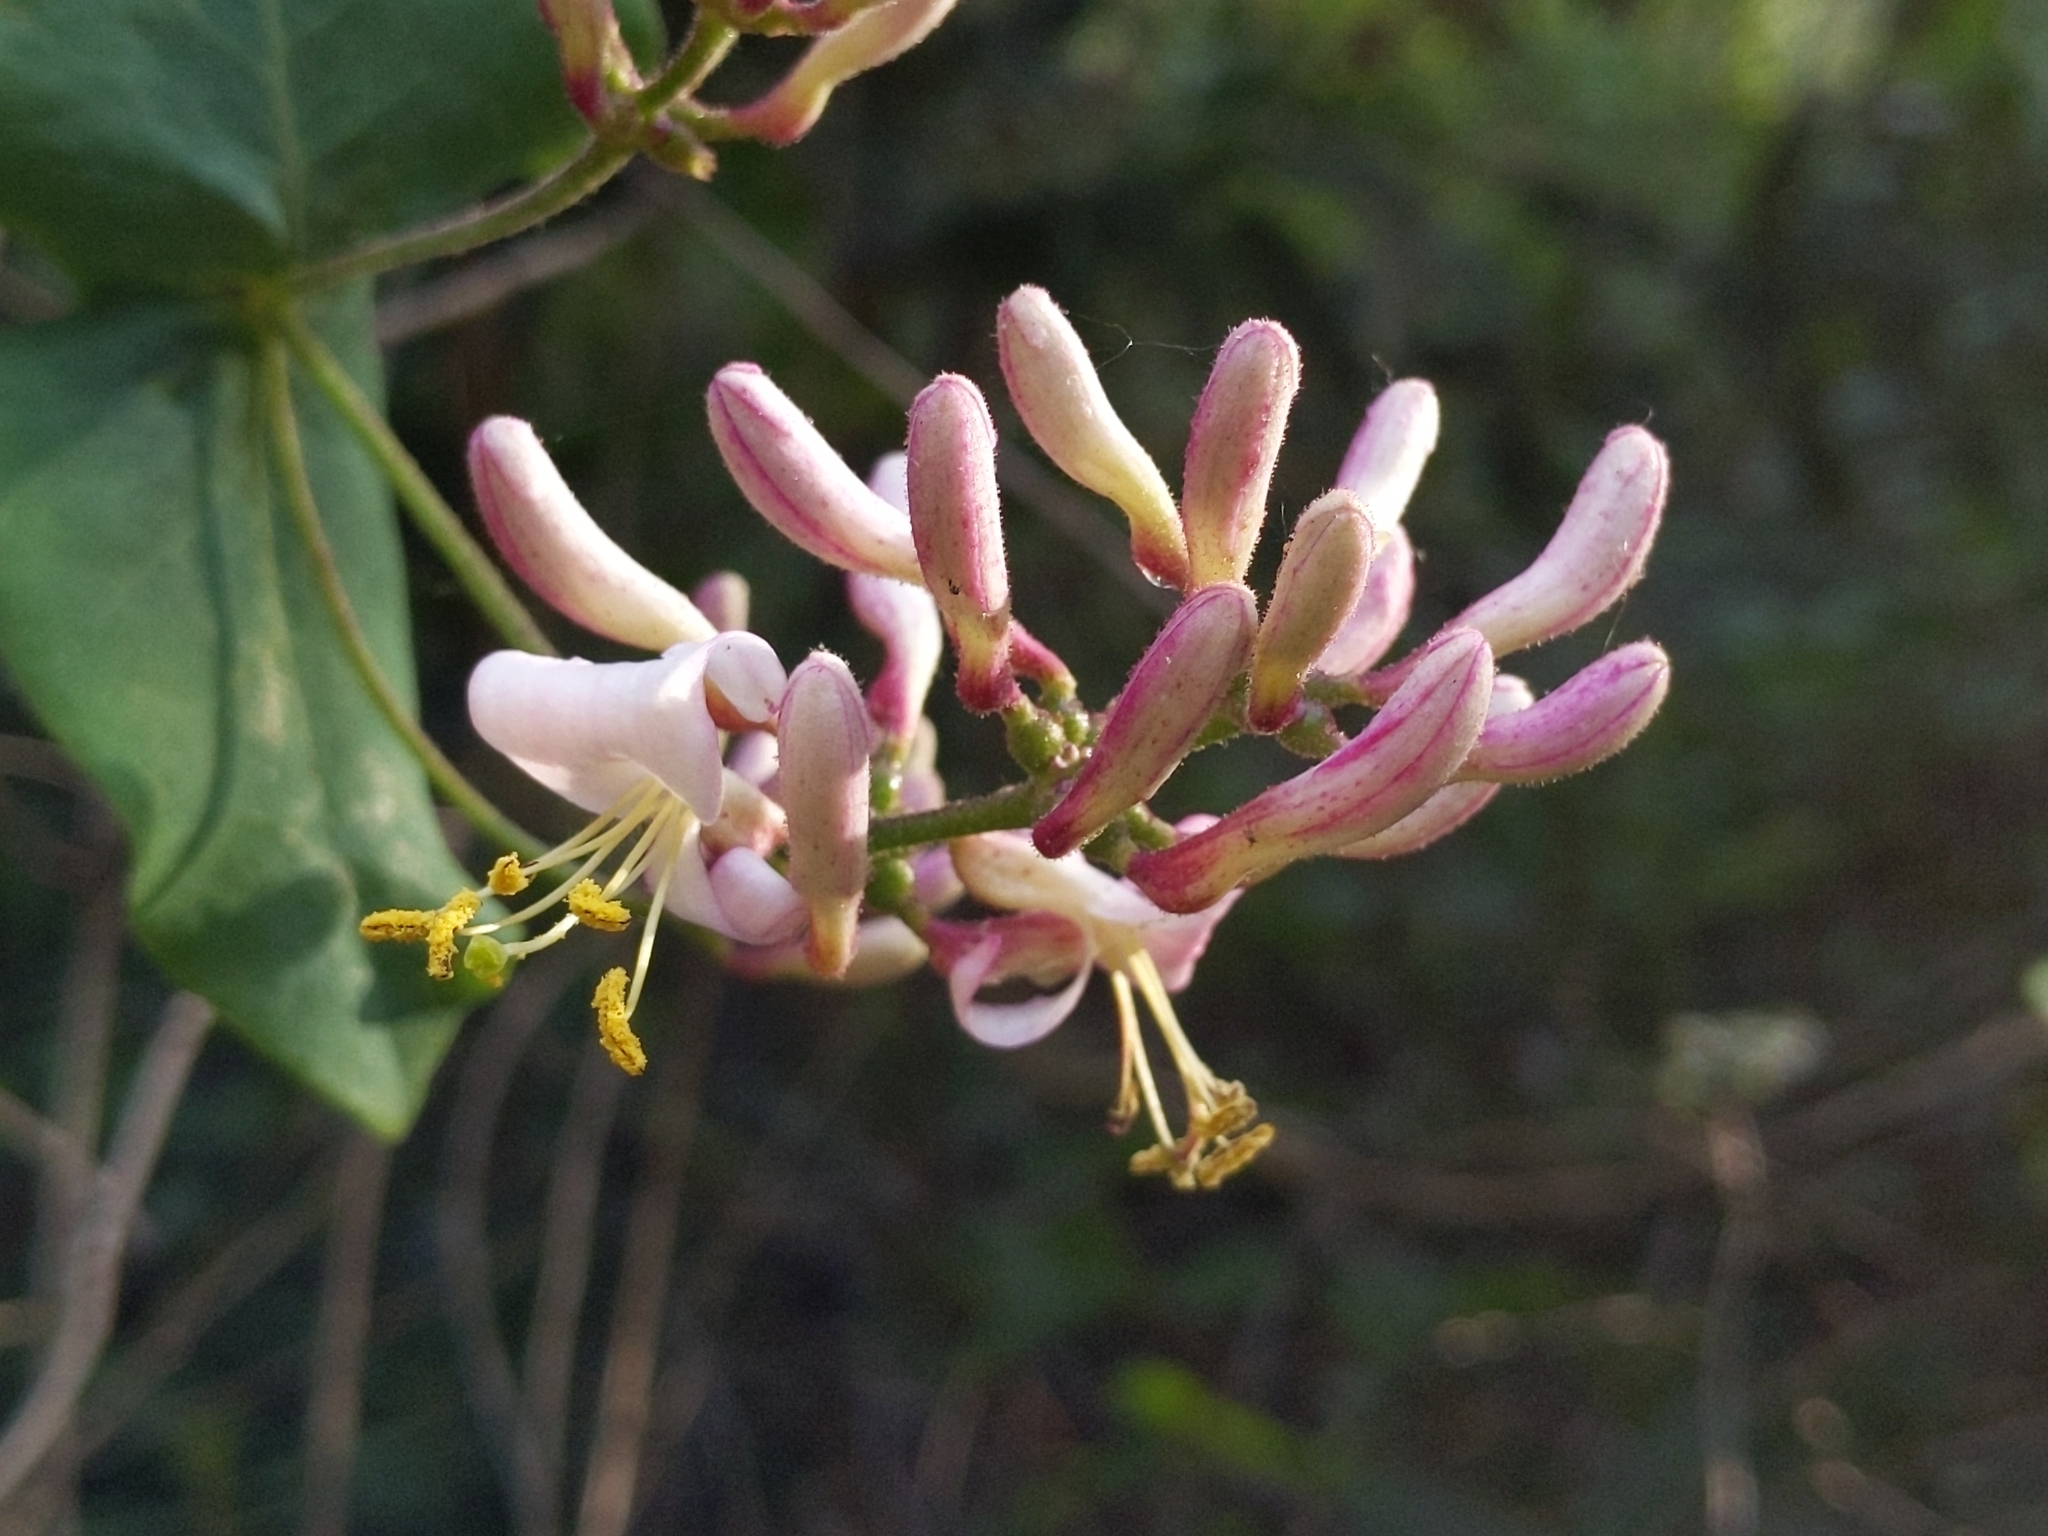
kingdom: Plantae
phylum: Tracheophyta
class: Magnoliopsida
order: Dipsacales
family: Caprifoliaceae
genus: Lonicera
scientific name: Lonicera hispidula
